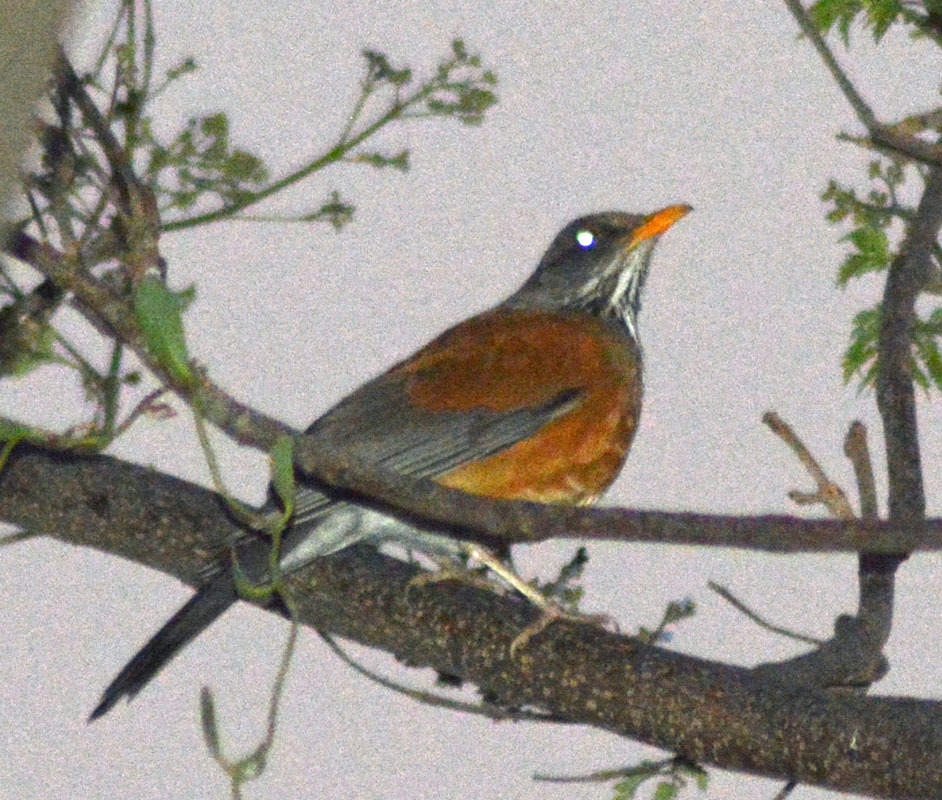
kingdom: Animalia
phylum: Chordata
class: Aves
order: Passeriformes
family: Turdidae
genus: Turdus
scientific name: Turdus rufopalliatus
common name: Rufous-backed robin
